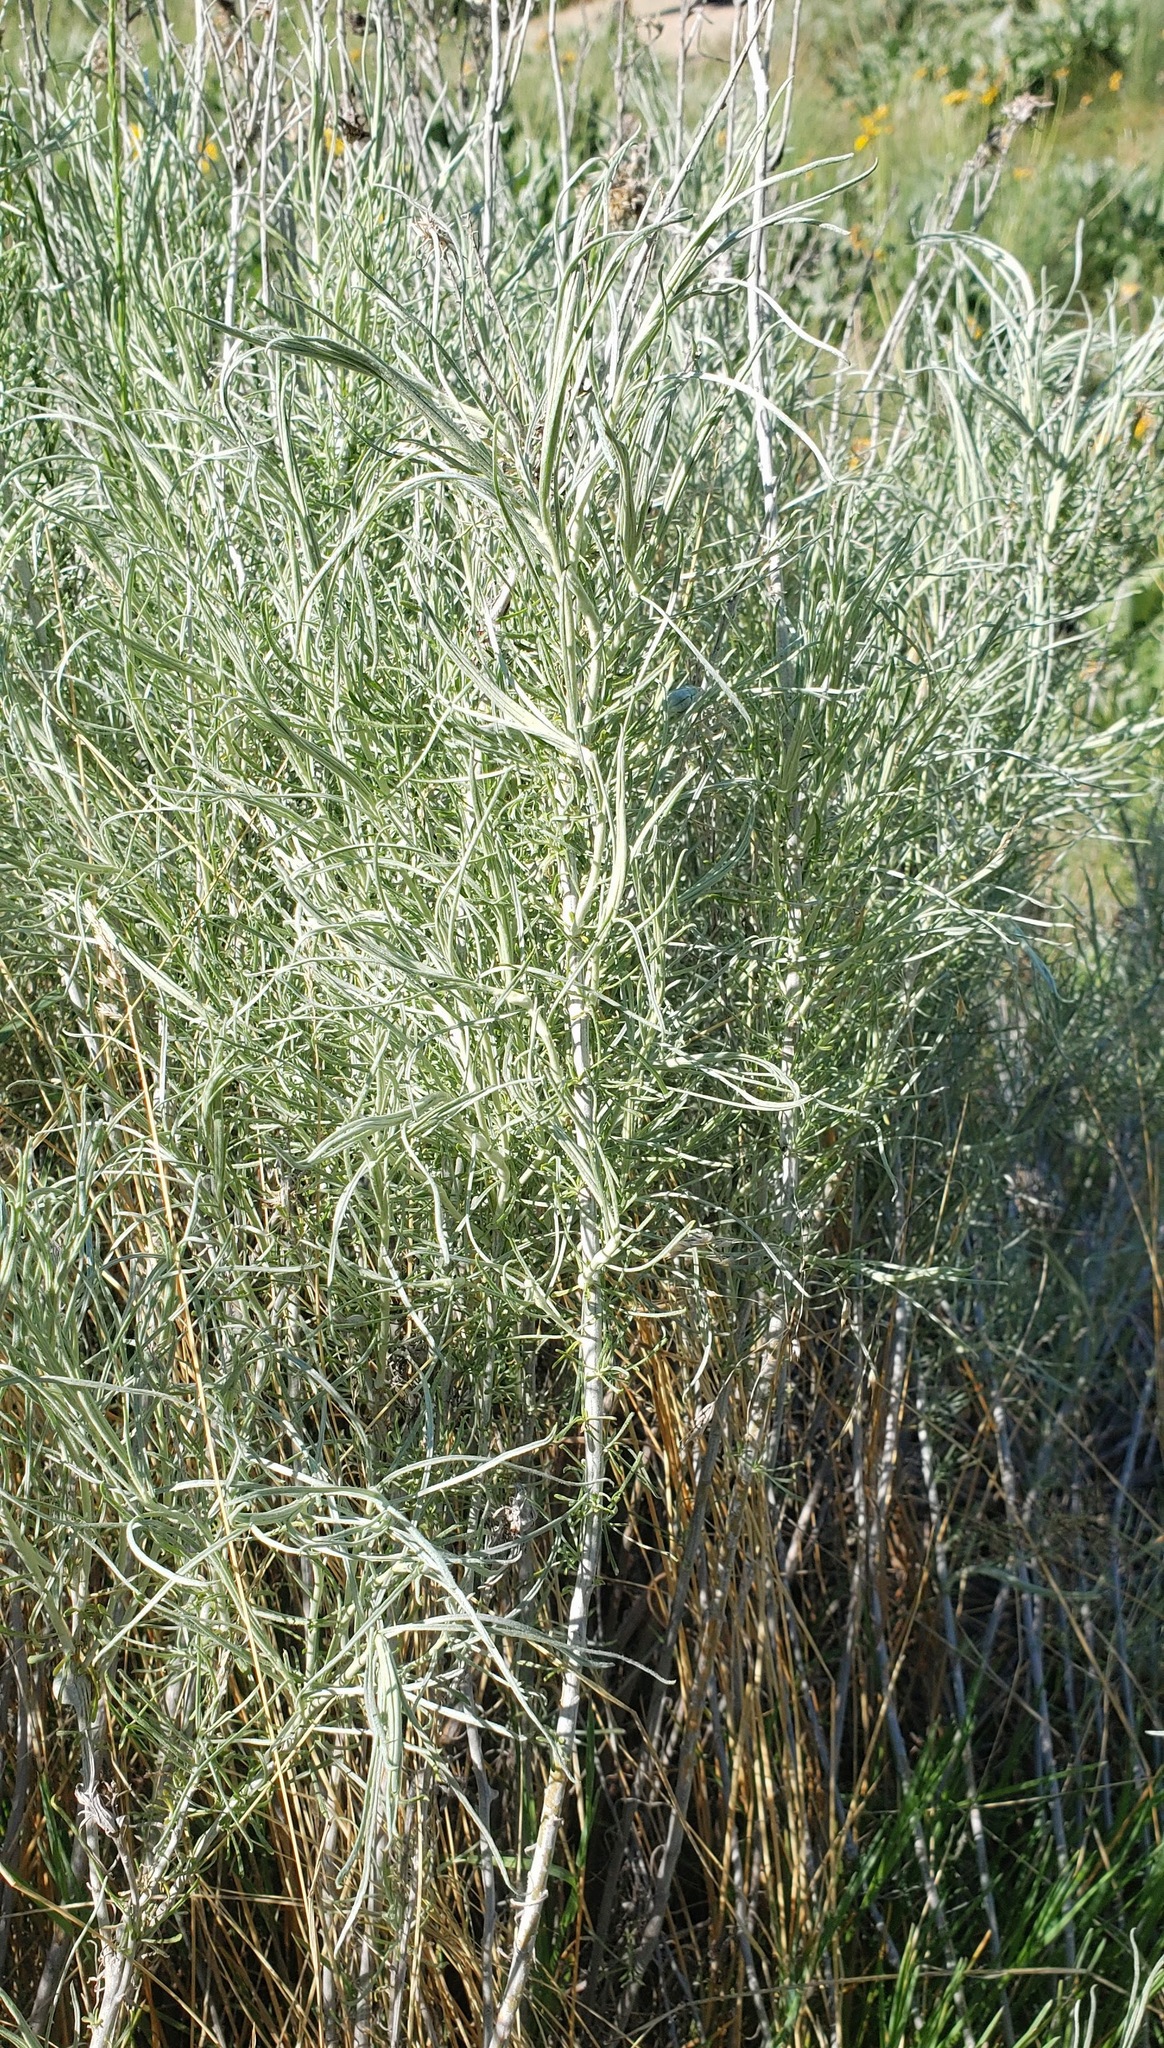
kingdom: Plantae
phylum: Tracheophyta
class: Magnoliopsida
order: Asterales
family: Asteraceae
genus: Ericameria
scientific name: Ericameria nauseosa
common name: Rubber rabbitbrush
